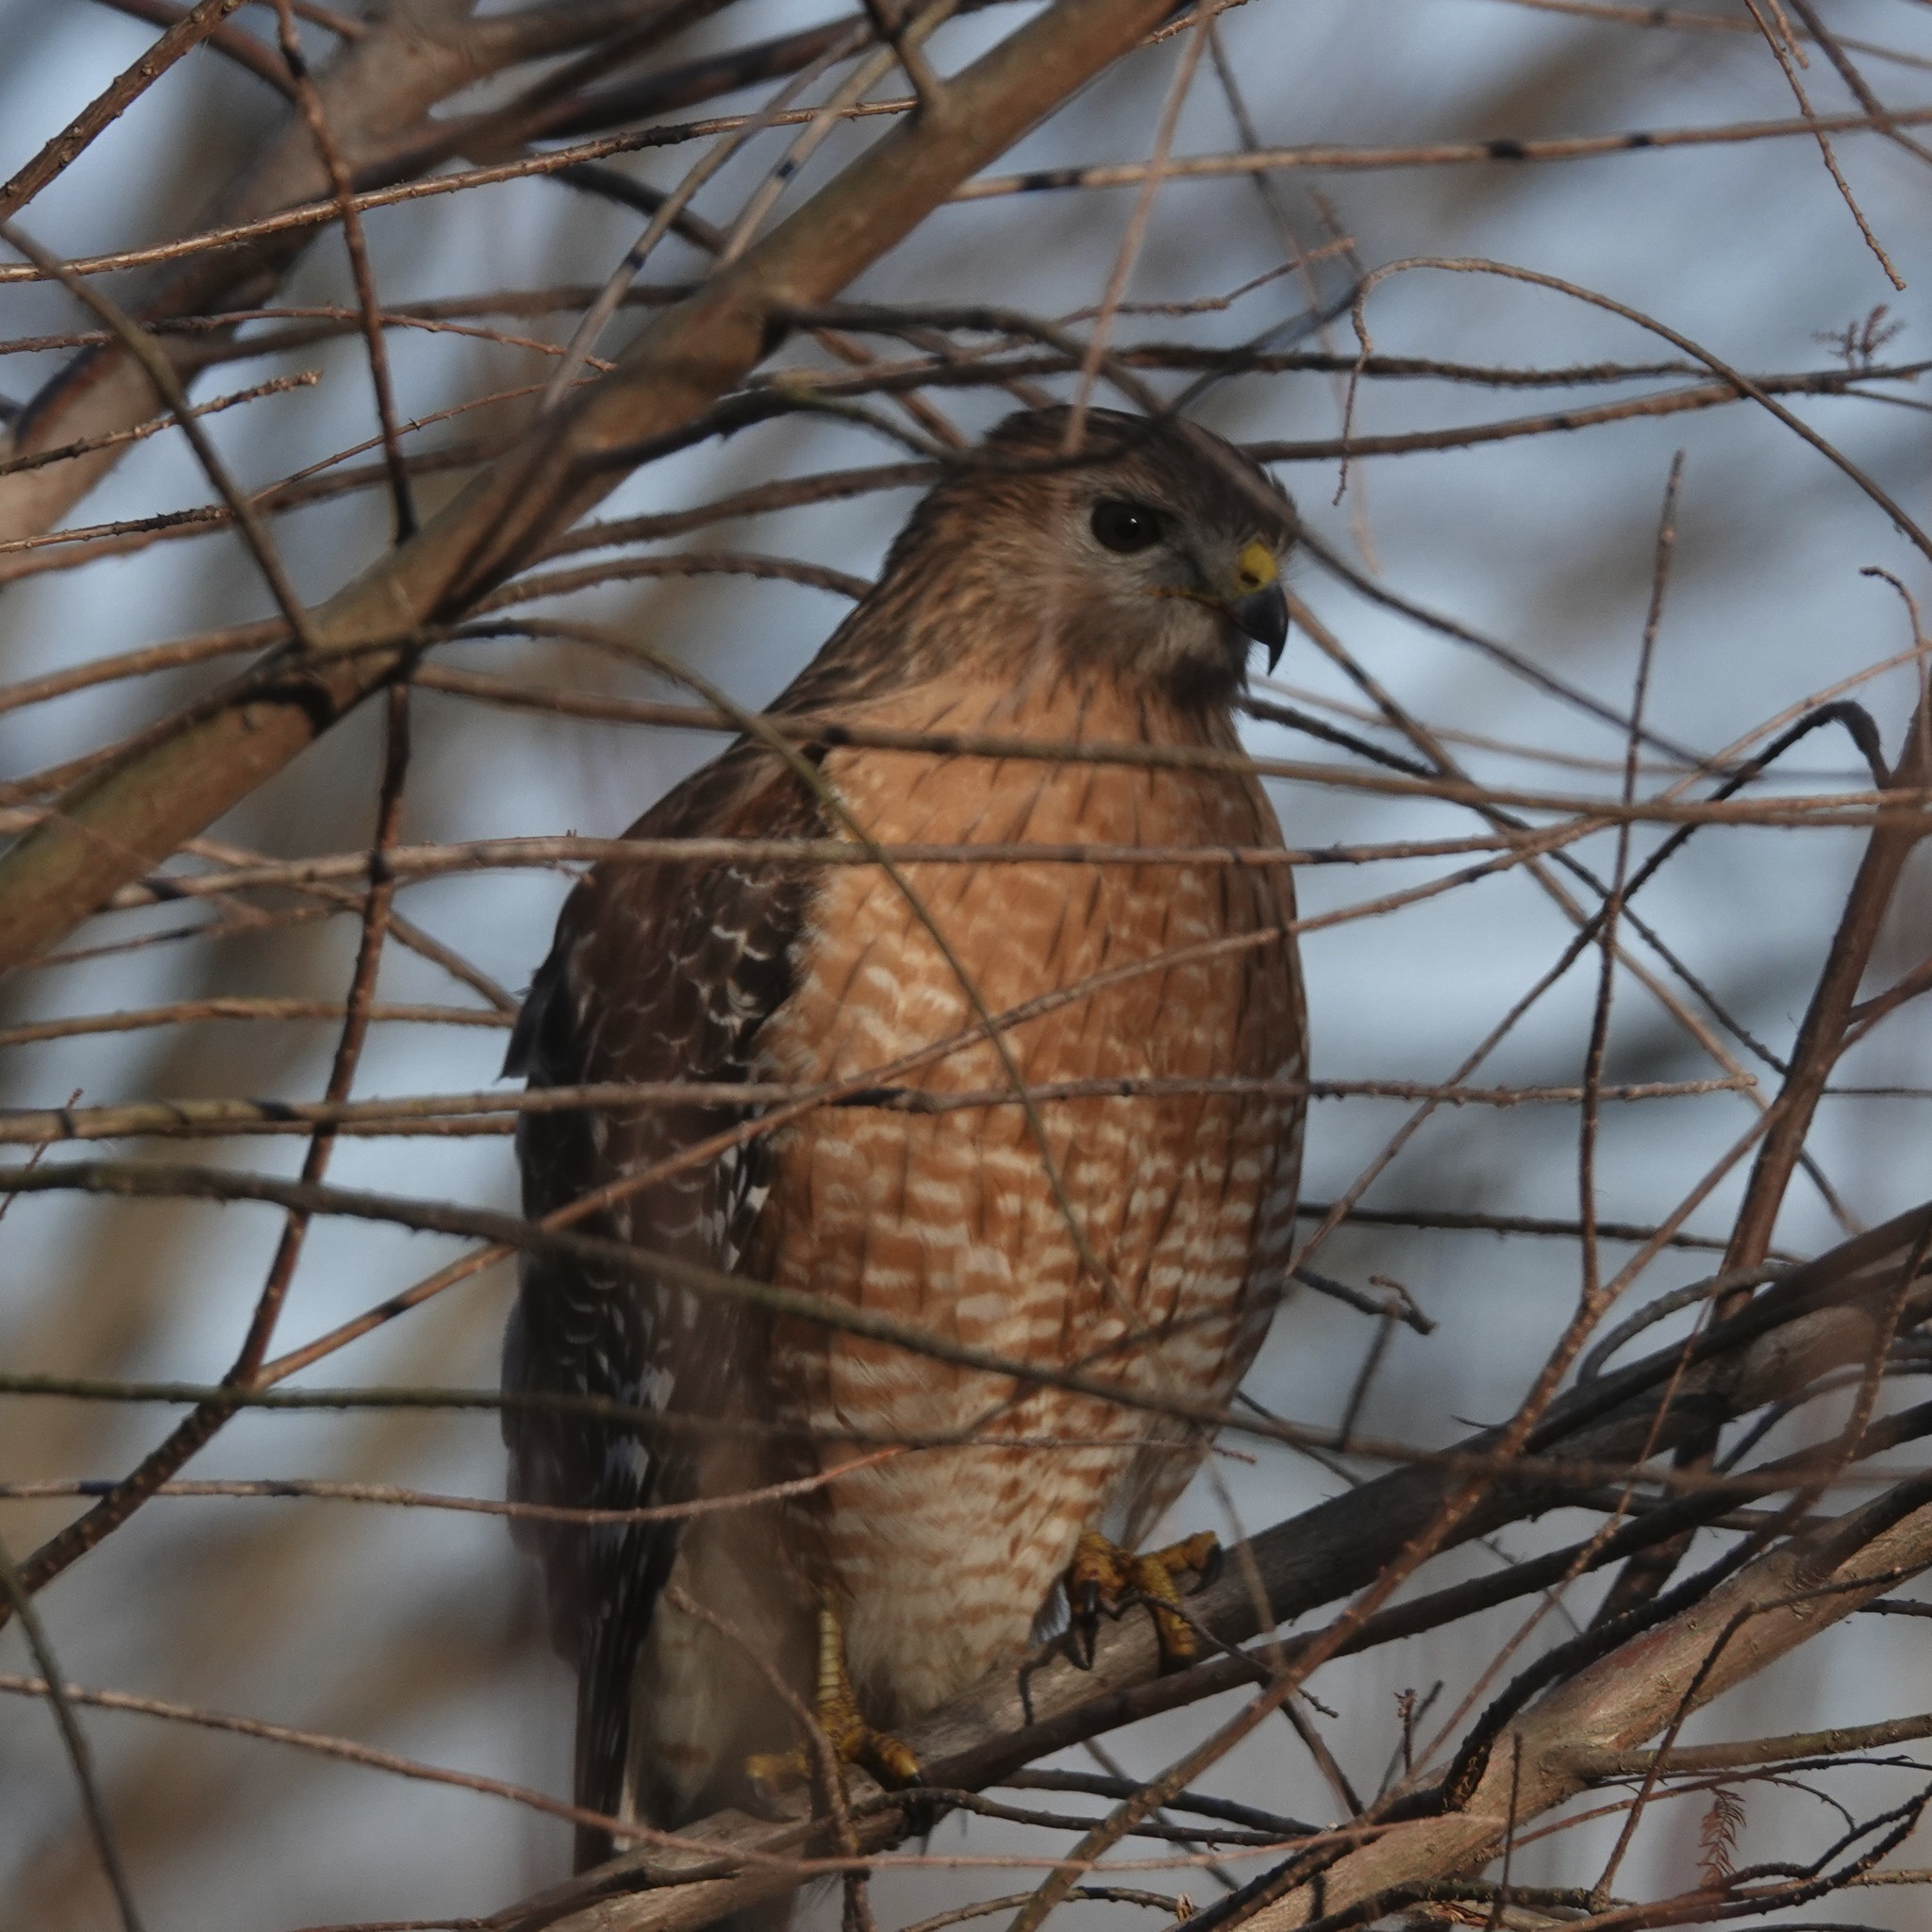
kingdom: Animalia
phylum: Chordata
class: Aves
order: Accipitriformes
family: Accipitridae
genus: Buteo
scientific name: Buteo lineatus
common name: Red-shouldered hawk
